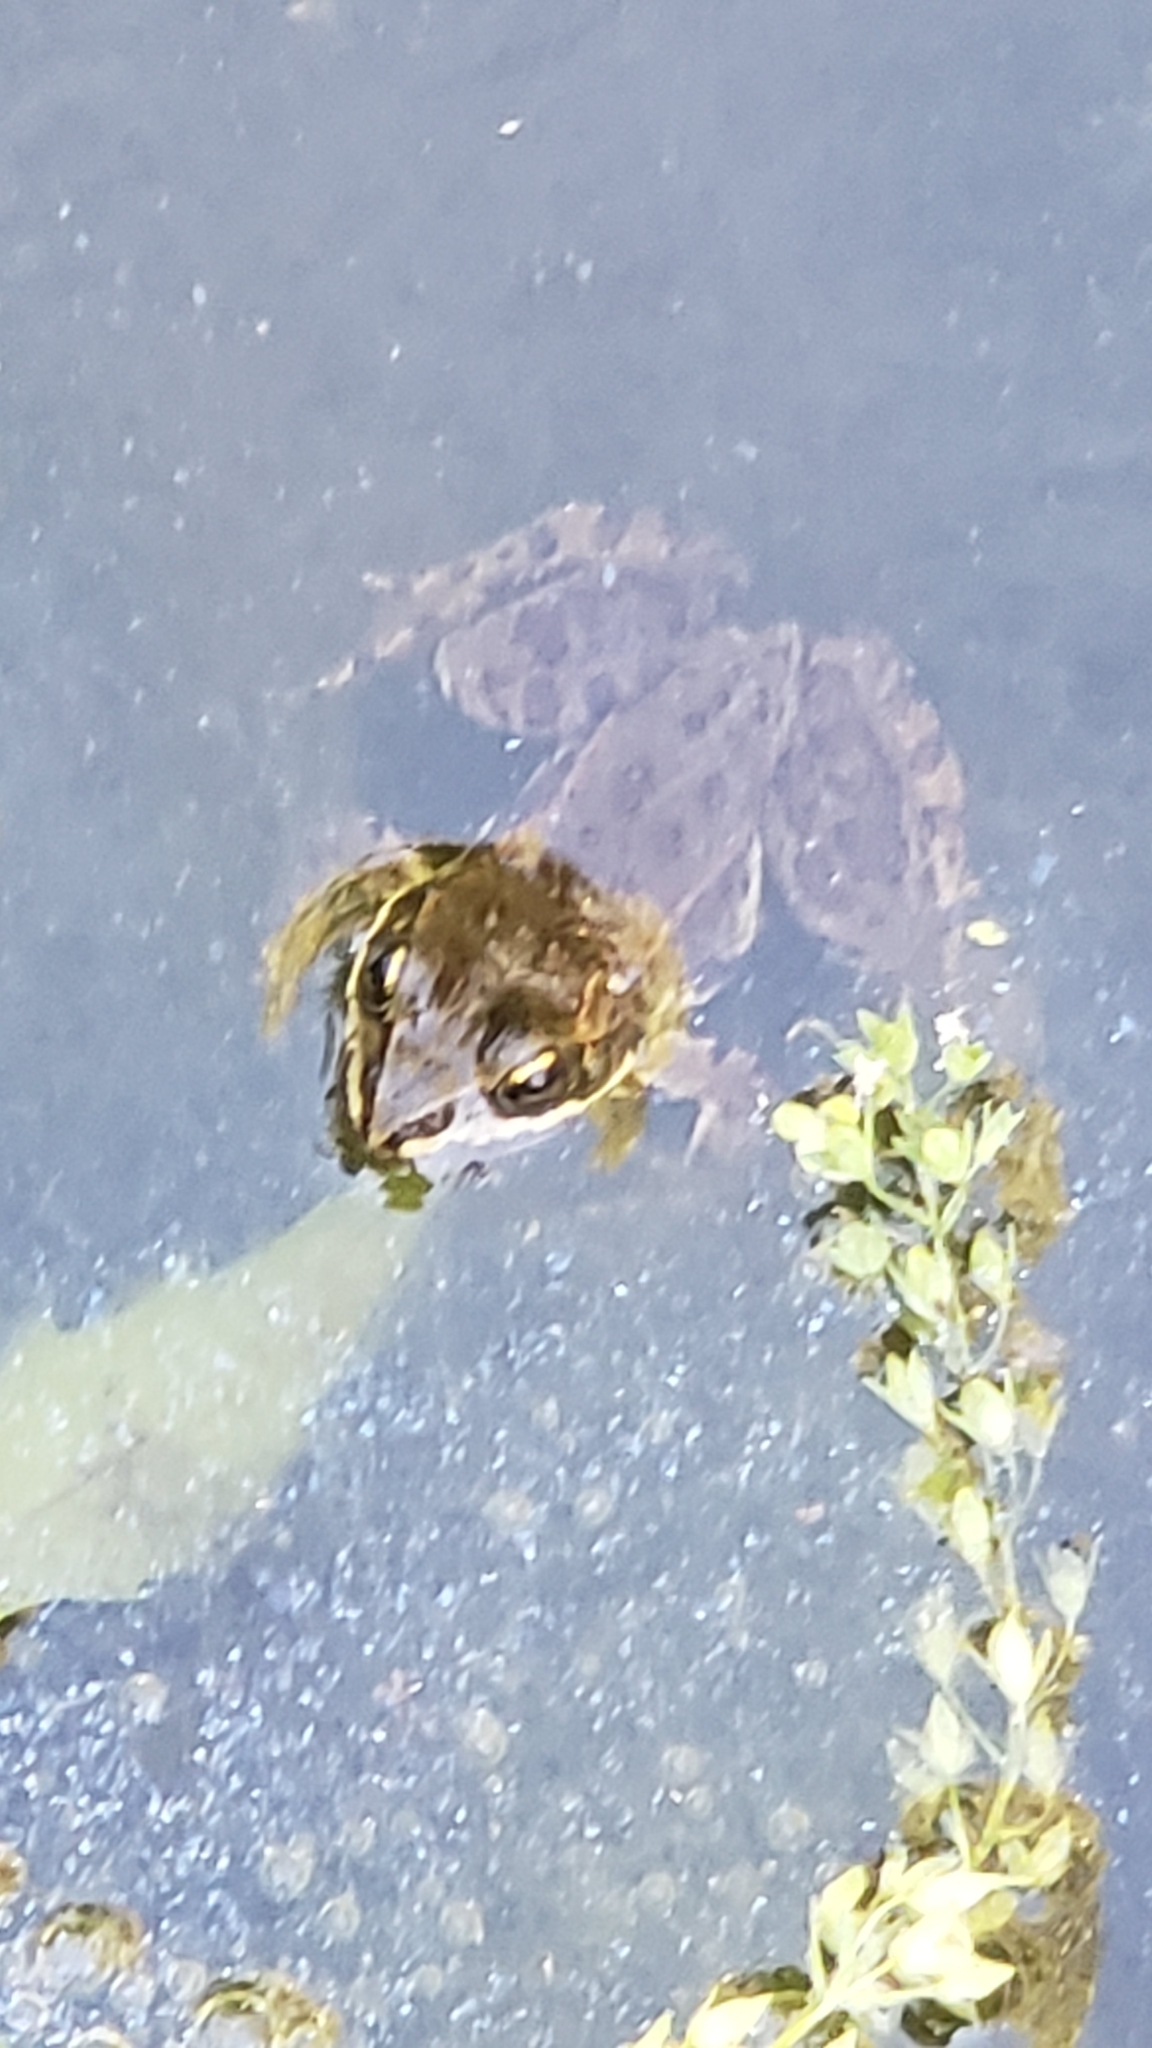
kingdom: Animalia
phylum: Chordata
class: Amphibia
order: Anura
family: Ranidae
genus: Rana
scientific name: Rana luteiventris
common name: Columbia spotted frog
